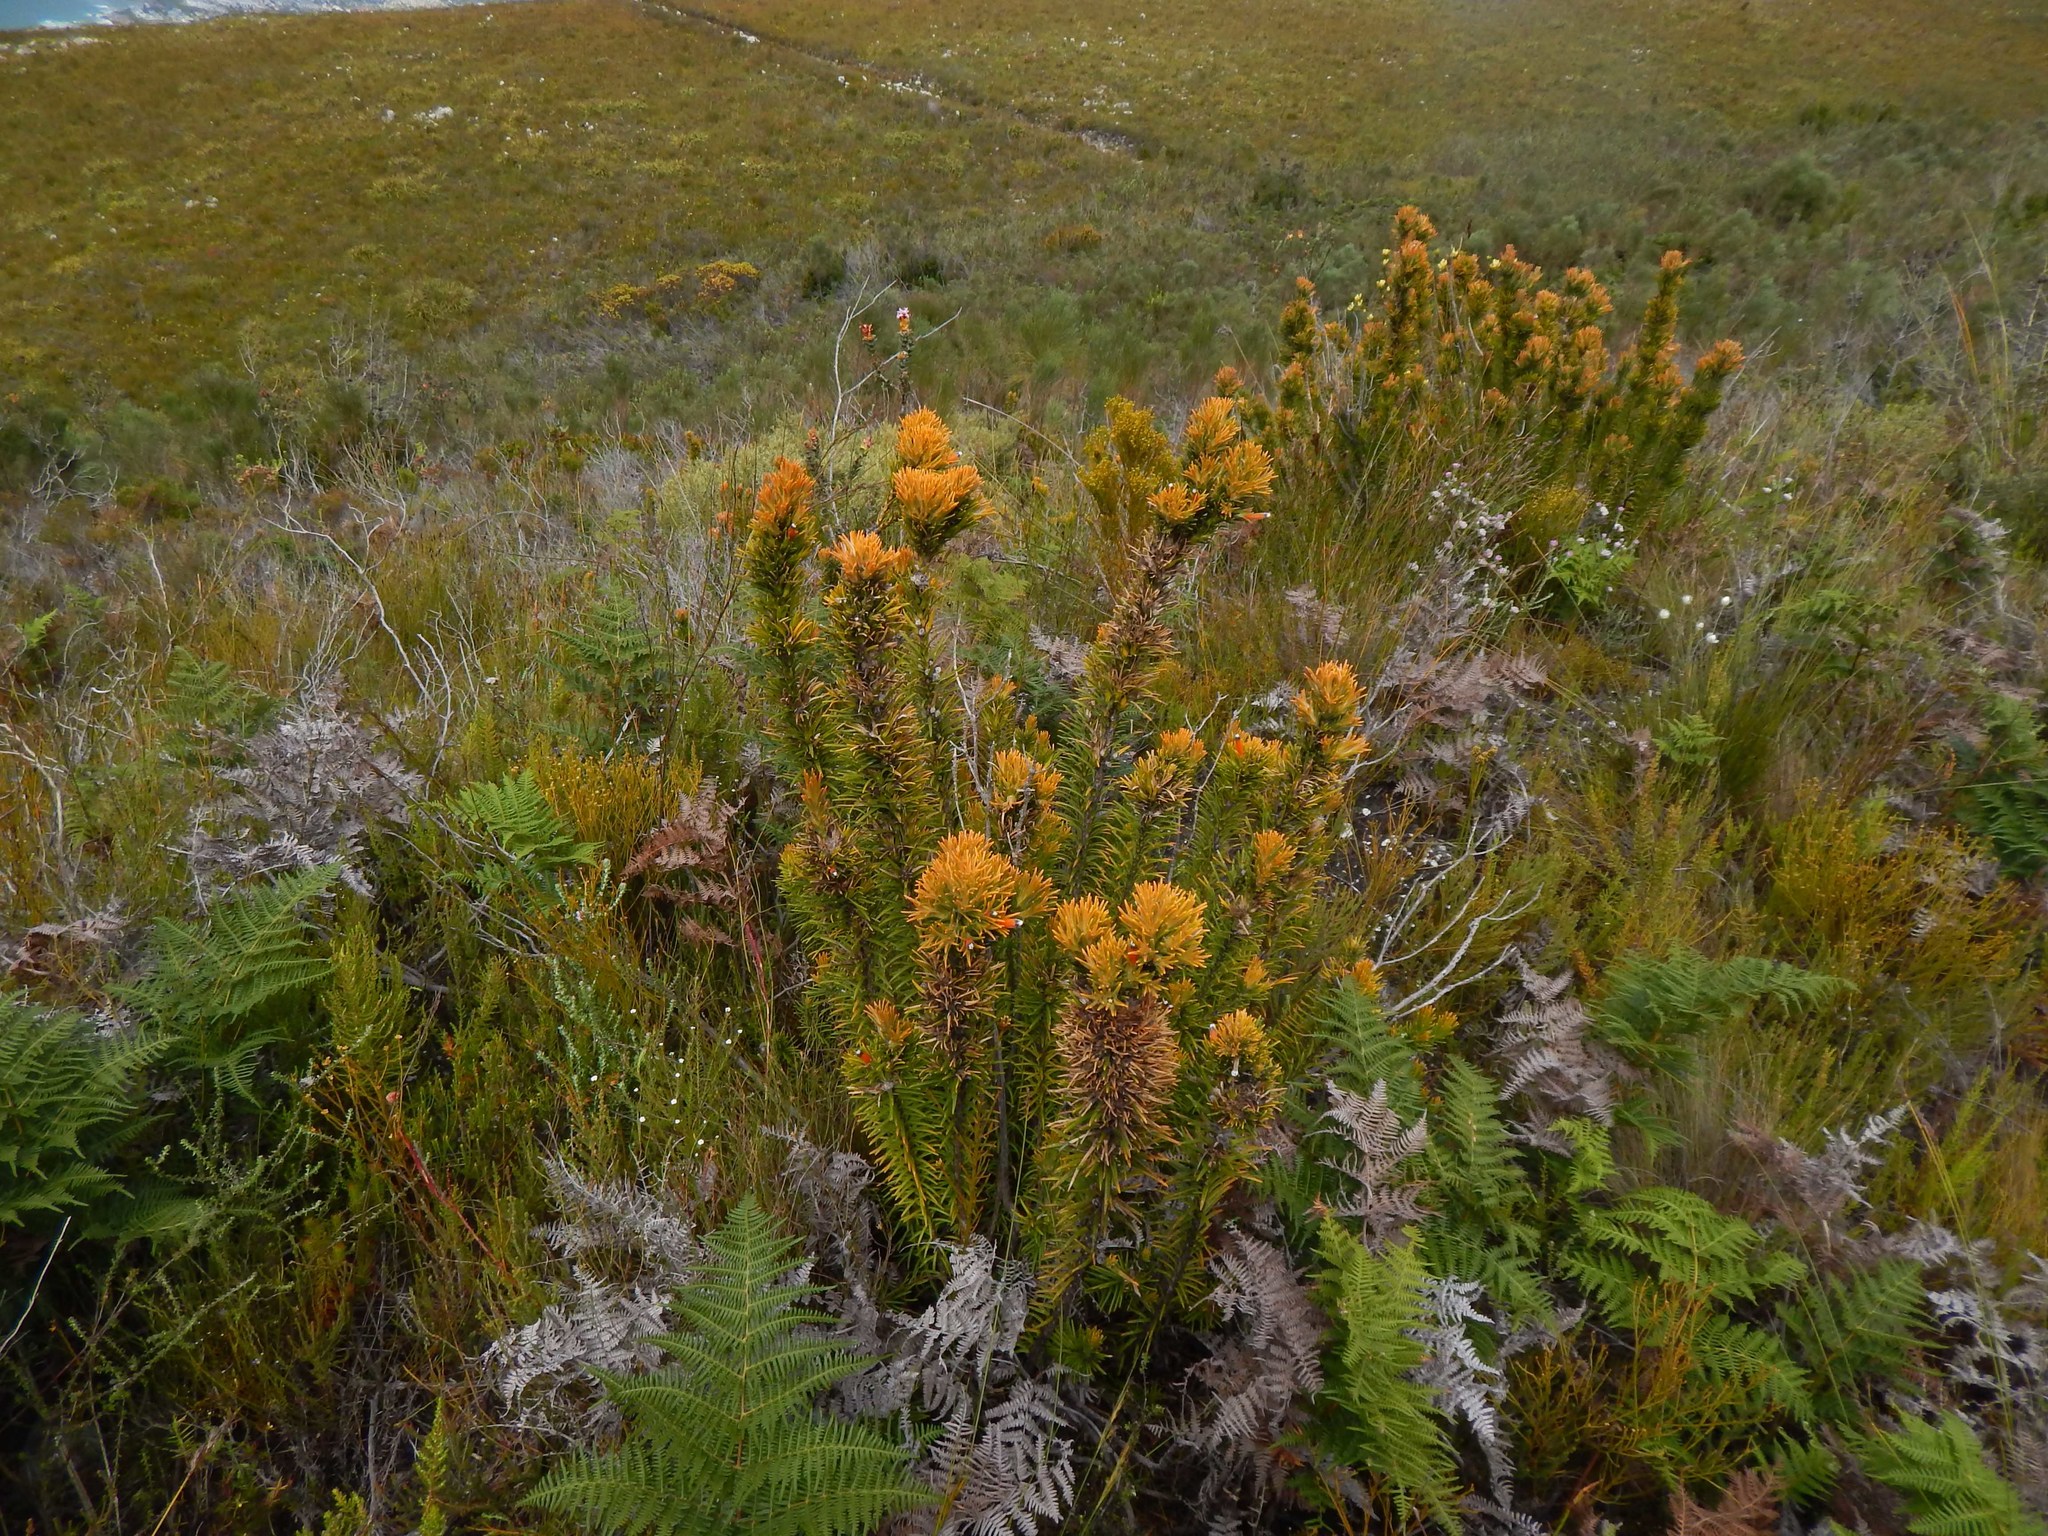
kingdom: Plantae
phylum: Tracheophyta
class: Magnoliopsida
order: Lamiales
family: Stilbaceae
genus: Retzia
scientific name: Retzia capensis
